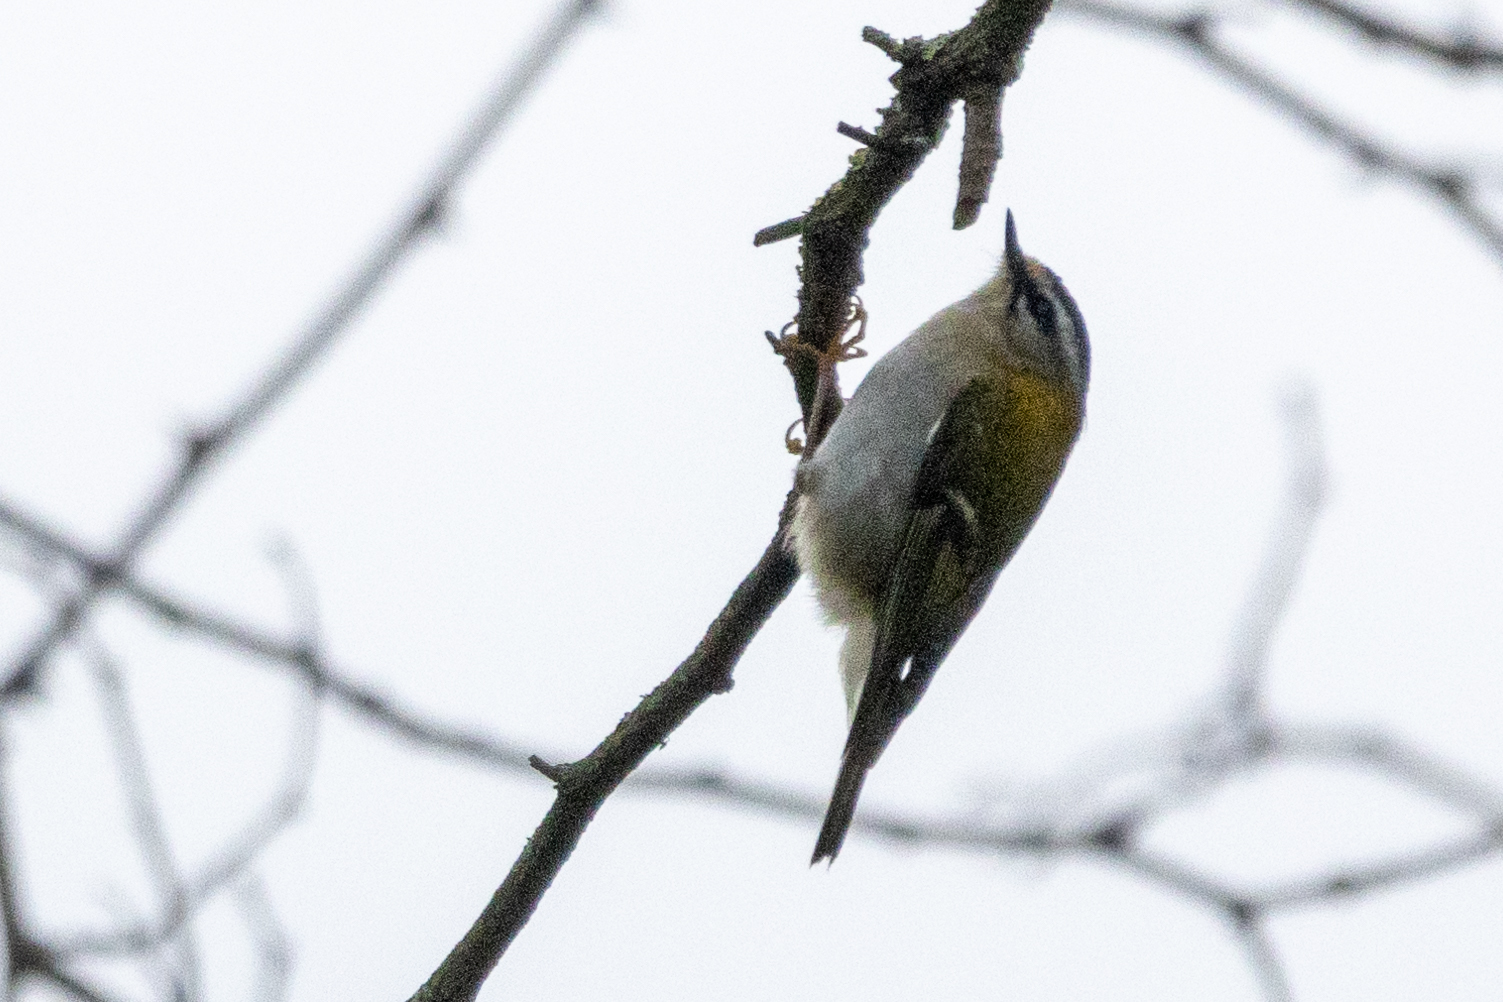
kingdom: Animalia
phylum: Chordata
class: Aves
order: Passeriformes
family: Regulidae
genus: Regulus
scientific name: Regulus ignicapilla
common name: Firecrest
